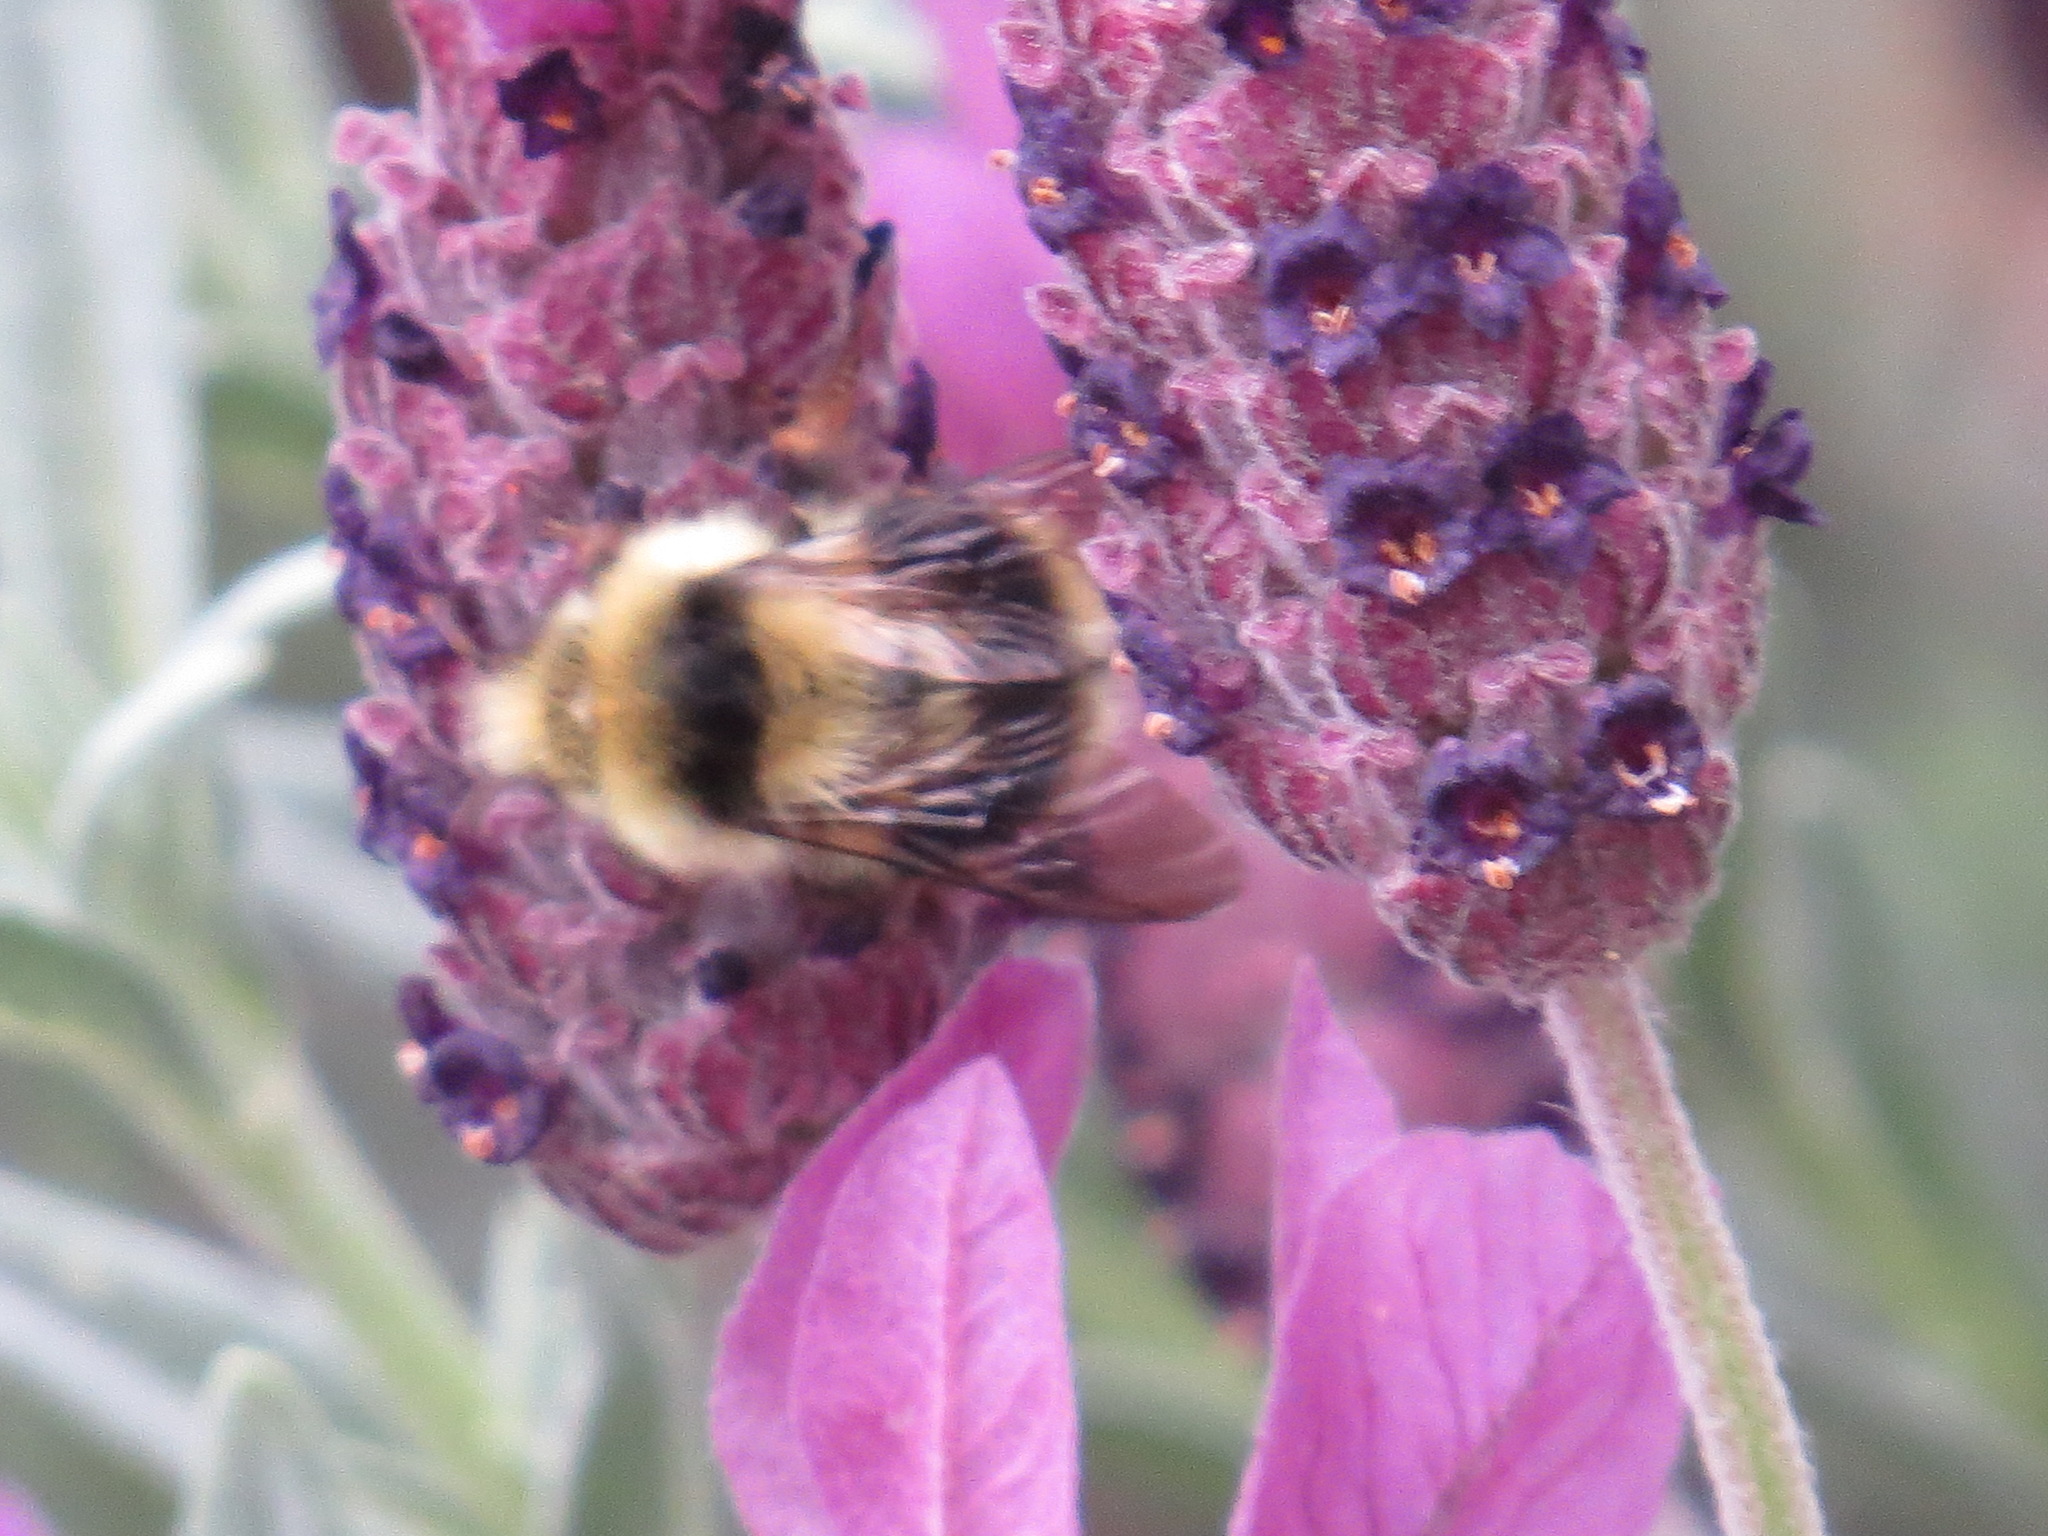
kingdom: Animalia
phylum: Arthropoda
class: Insecta
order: Hymenoptera
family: Apidae
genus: Bombus
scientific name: Bombus melanopygus
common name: Black tail bumble bee
